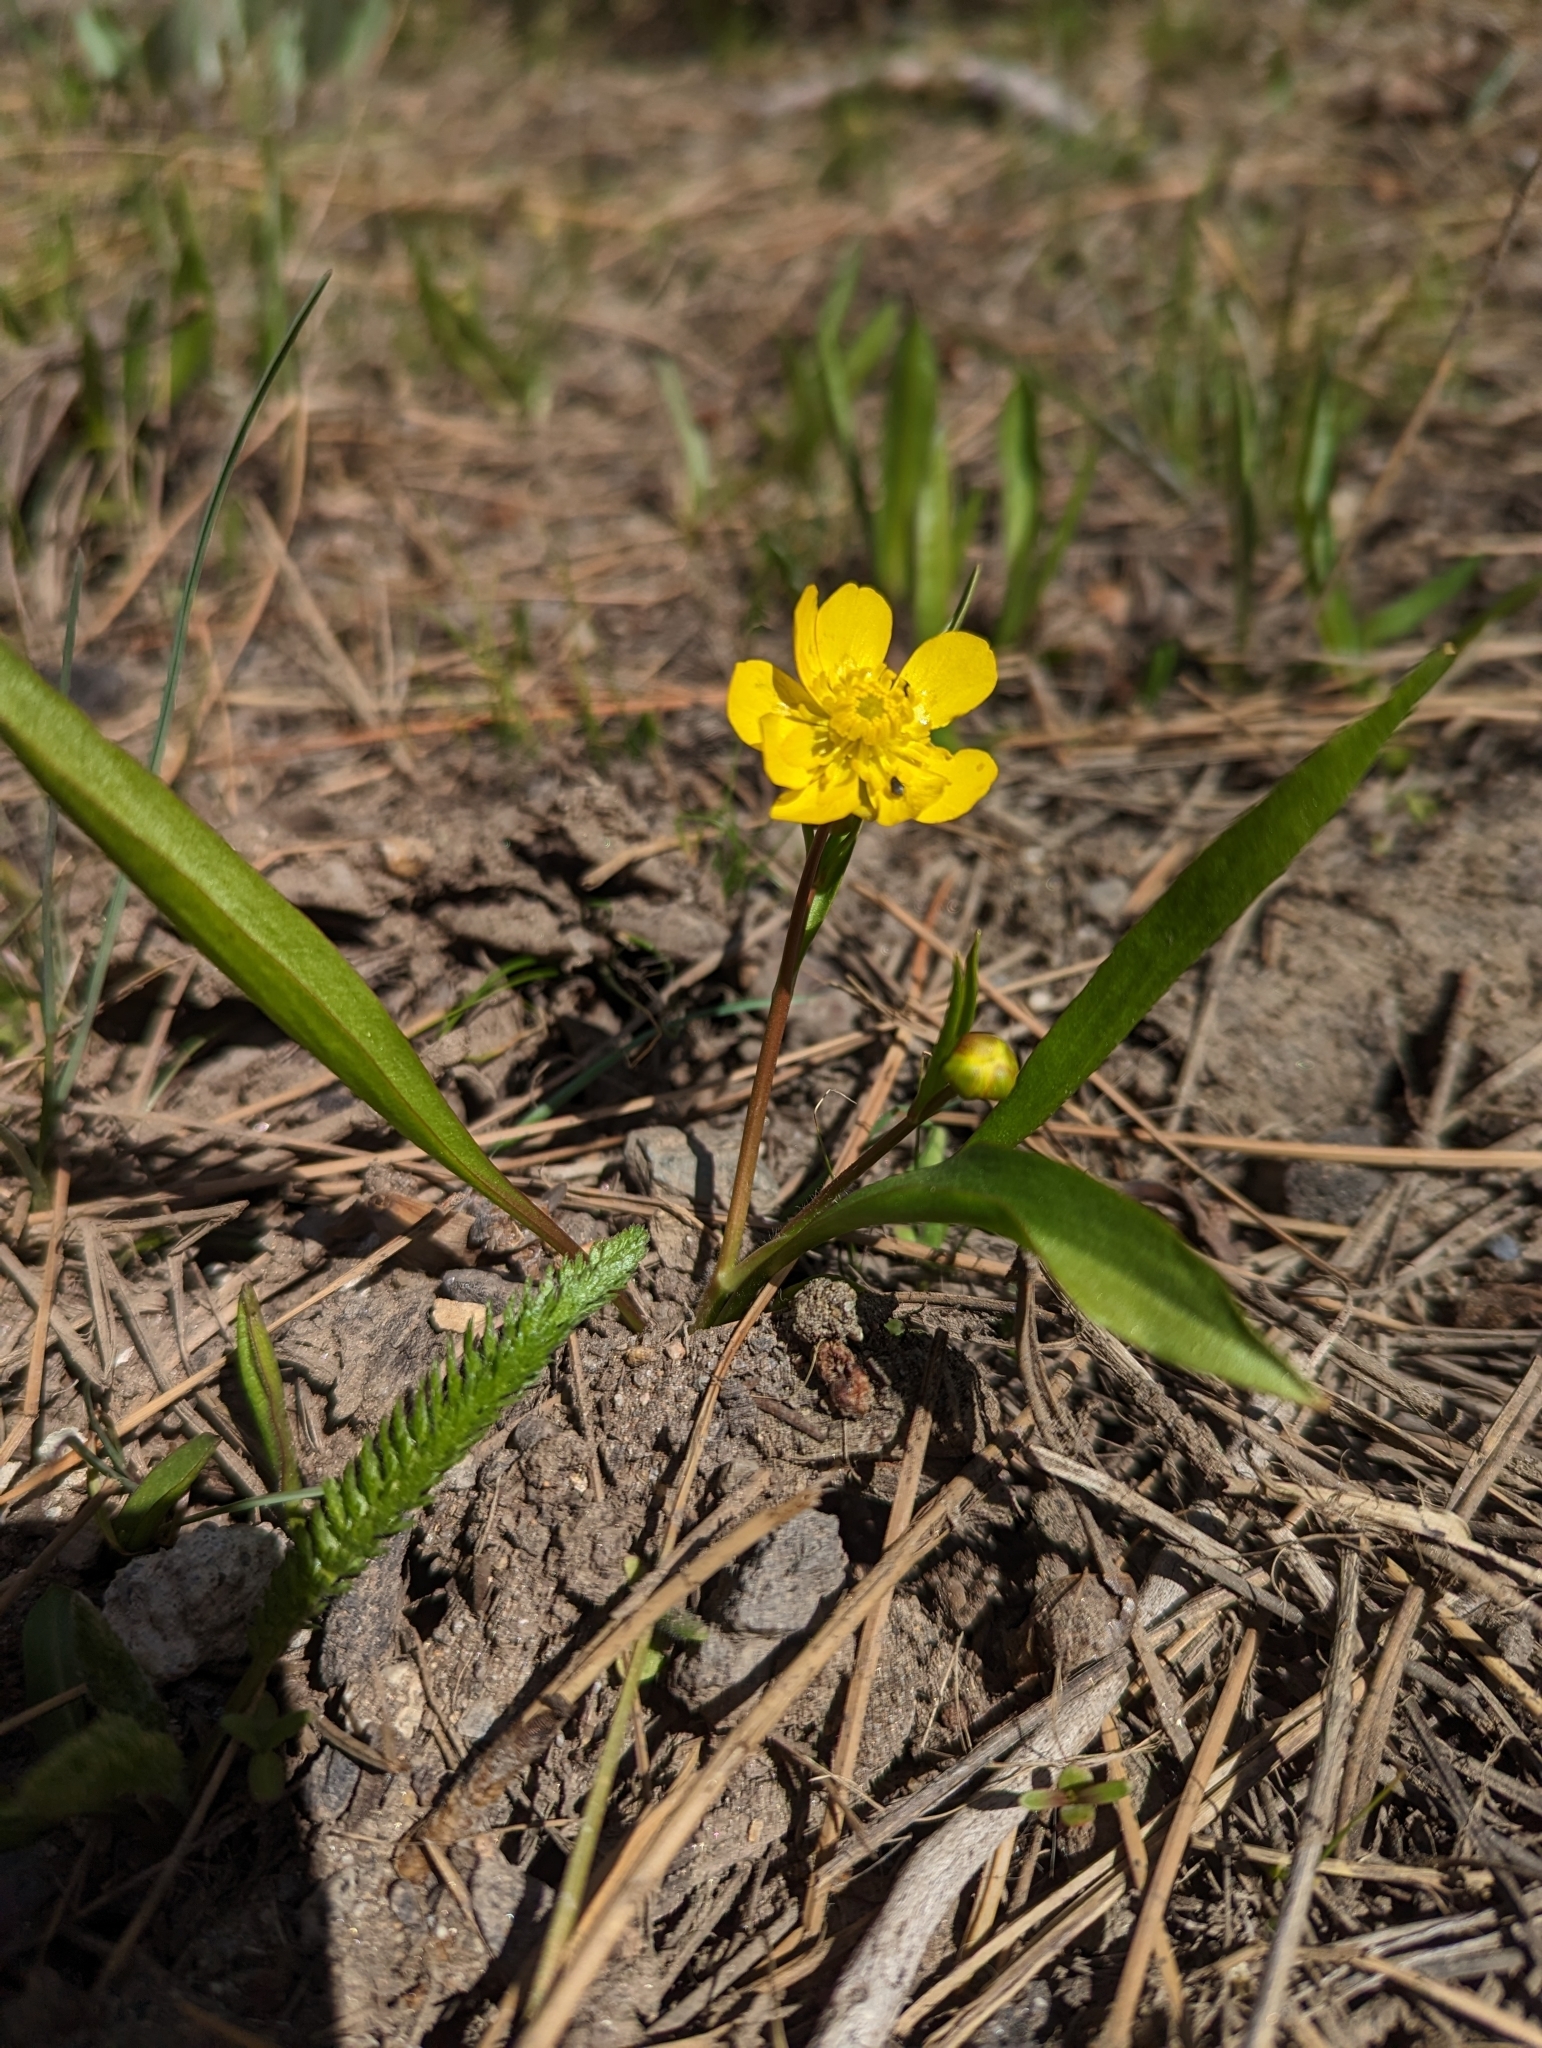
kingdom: Plantae
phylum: Tracheophyta
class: Magnoliopsida
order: Ranunculales
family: Ranunculaceae
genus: Ranunculus
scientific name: Ranunculus alismifolius
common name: Plantain-leaved buttercup
